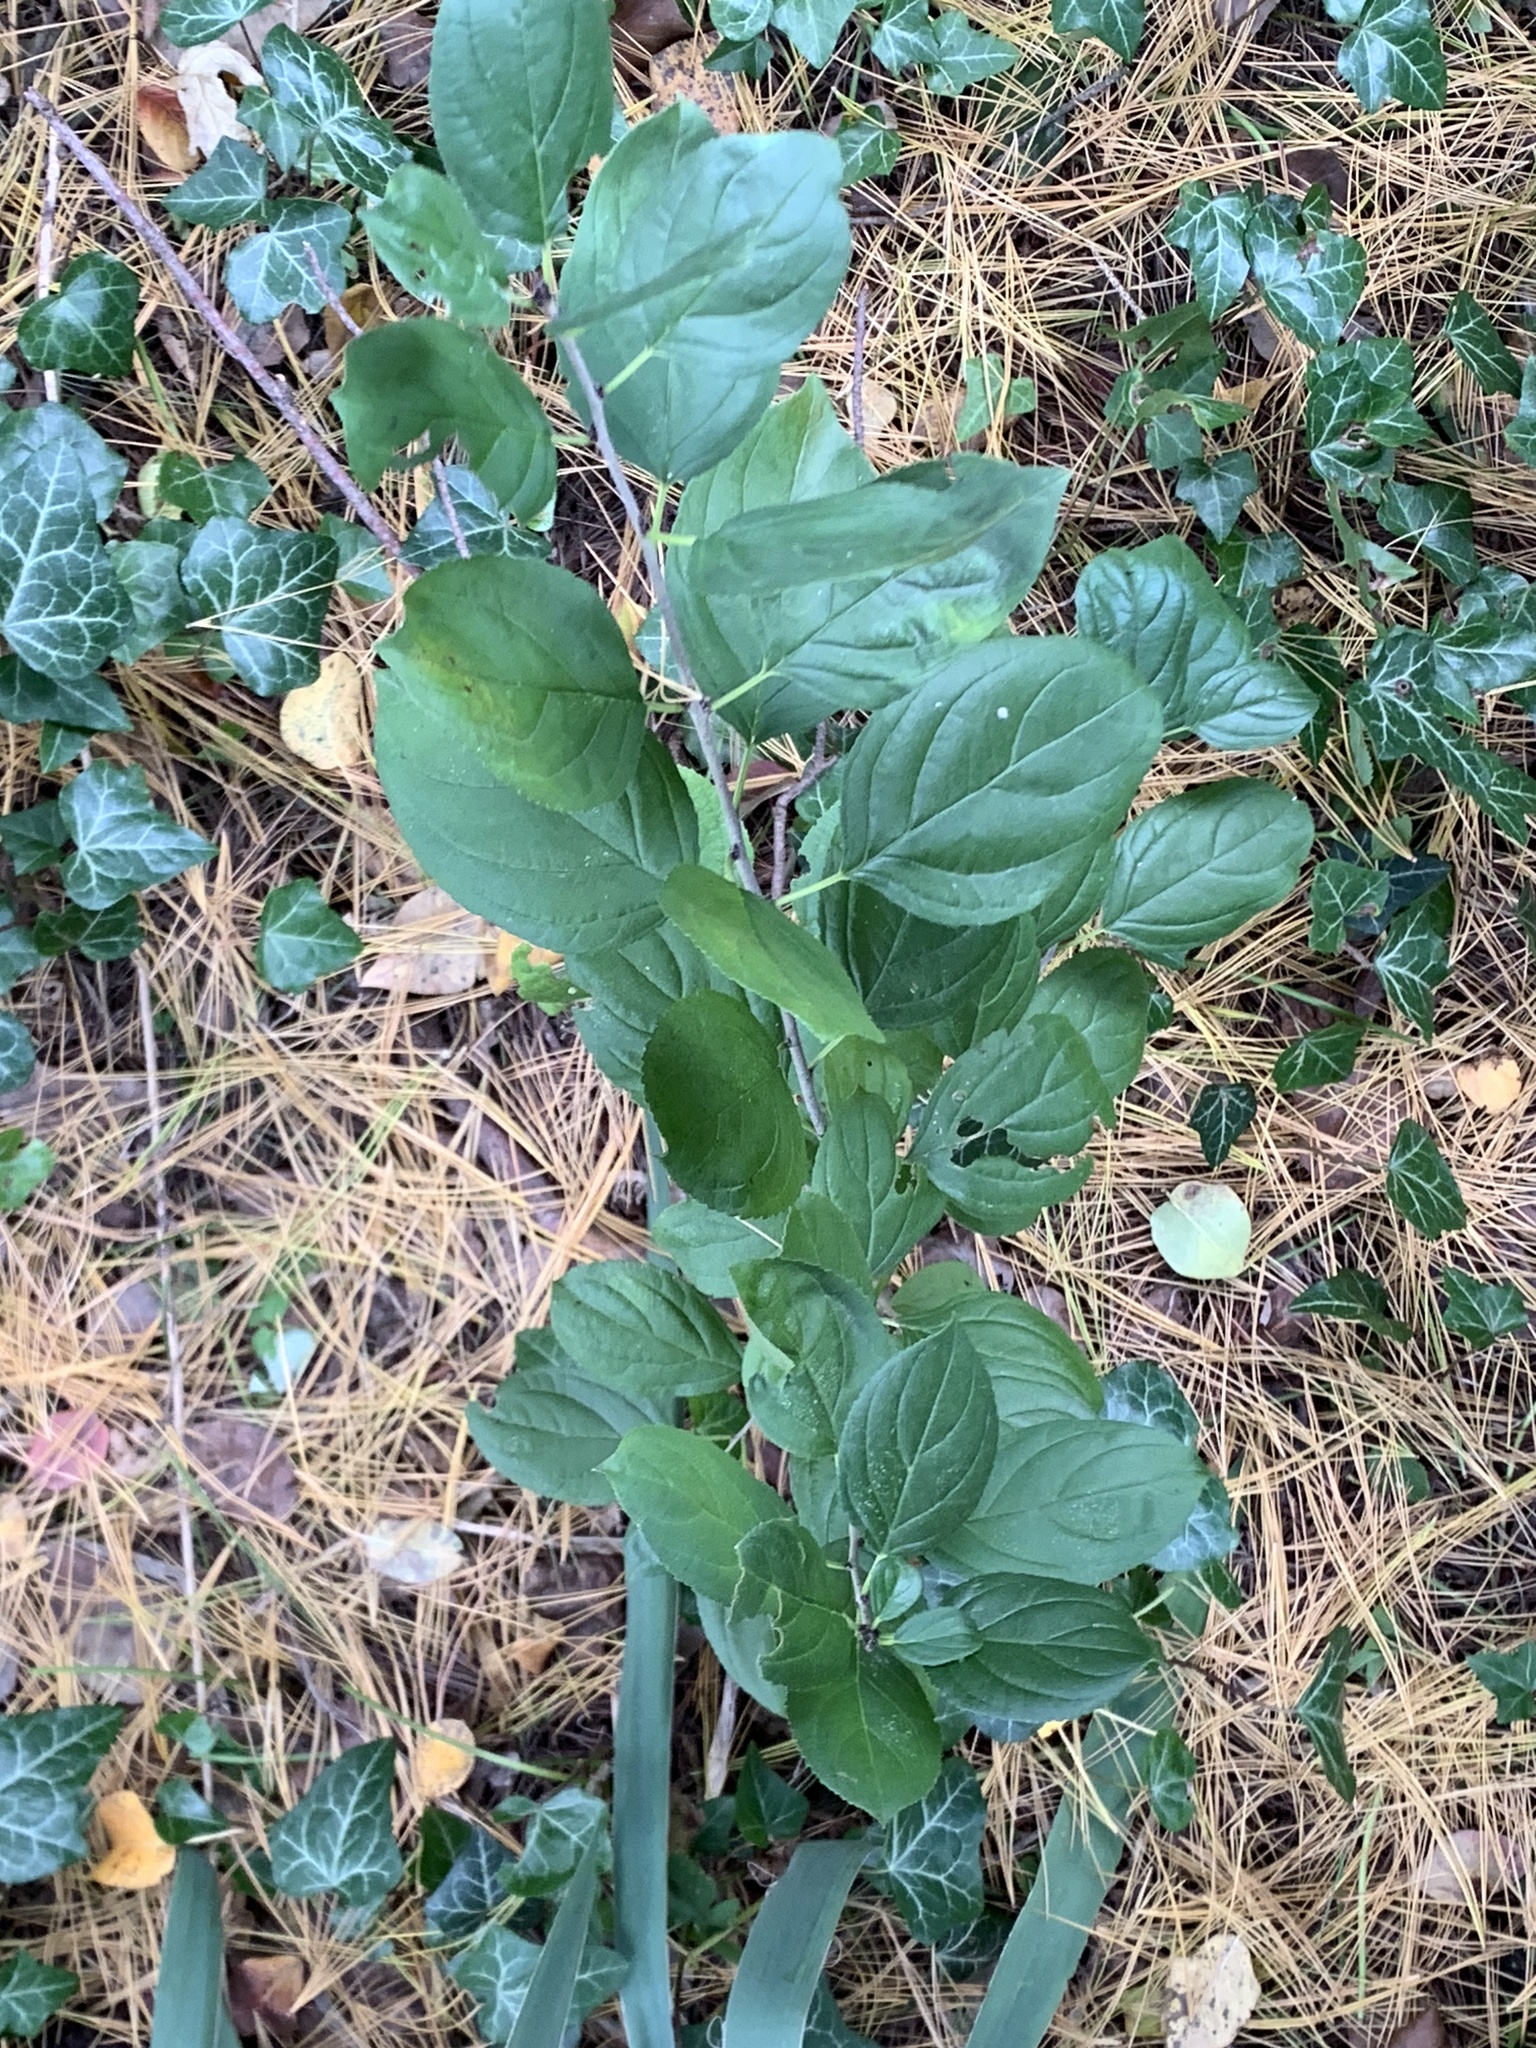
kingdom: Plantae
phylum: Tracheophyta
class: Magnoliopsida
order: Rosales
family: Rhamnaceae
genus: Rhamnus
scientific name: Rhamnus cathartica
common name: Common buckthorn
